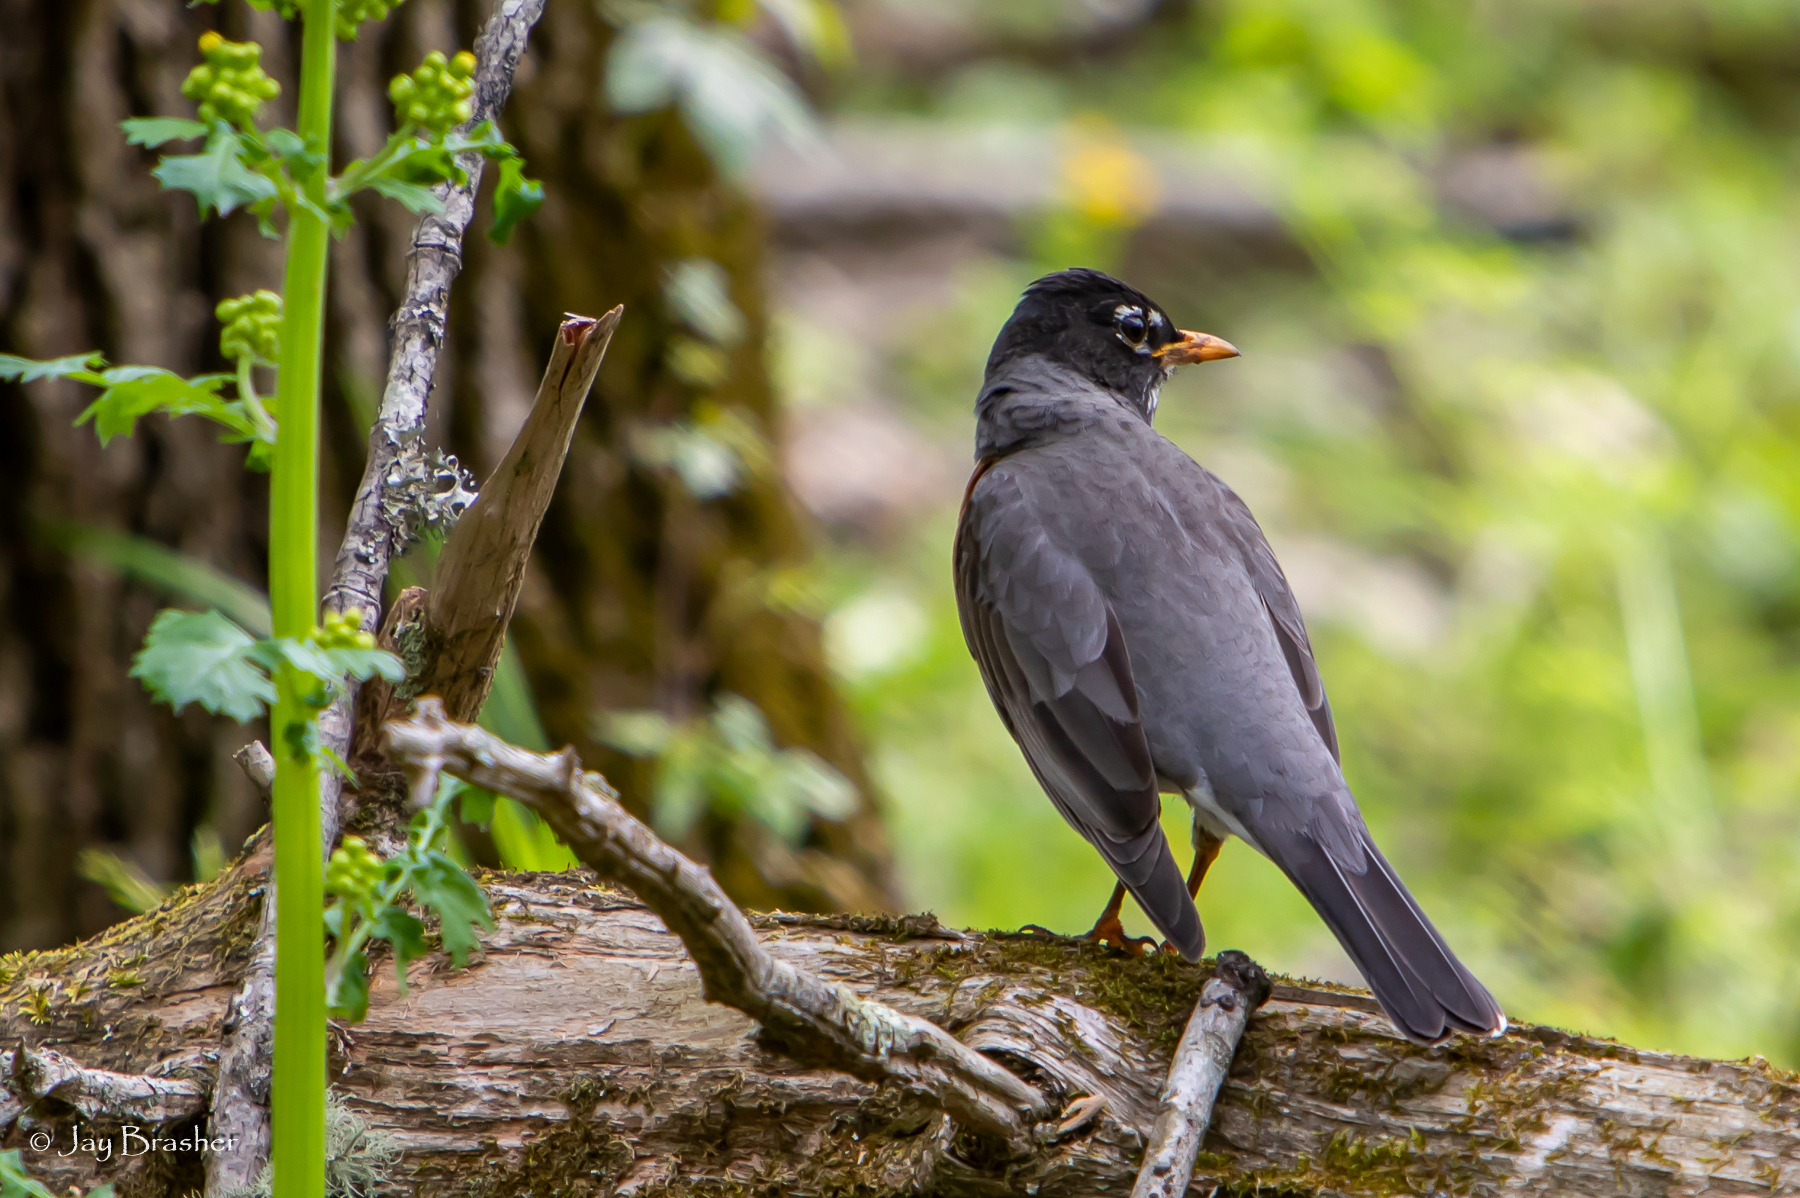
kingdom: Animalia
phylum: Chordata
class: Aves
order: Passeriformes
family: Turdidae
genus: Turdus
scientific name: Turdus migratorius
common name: American robin
